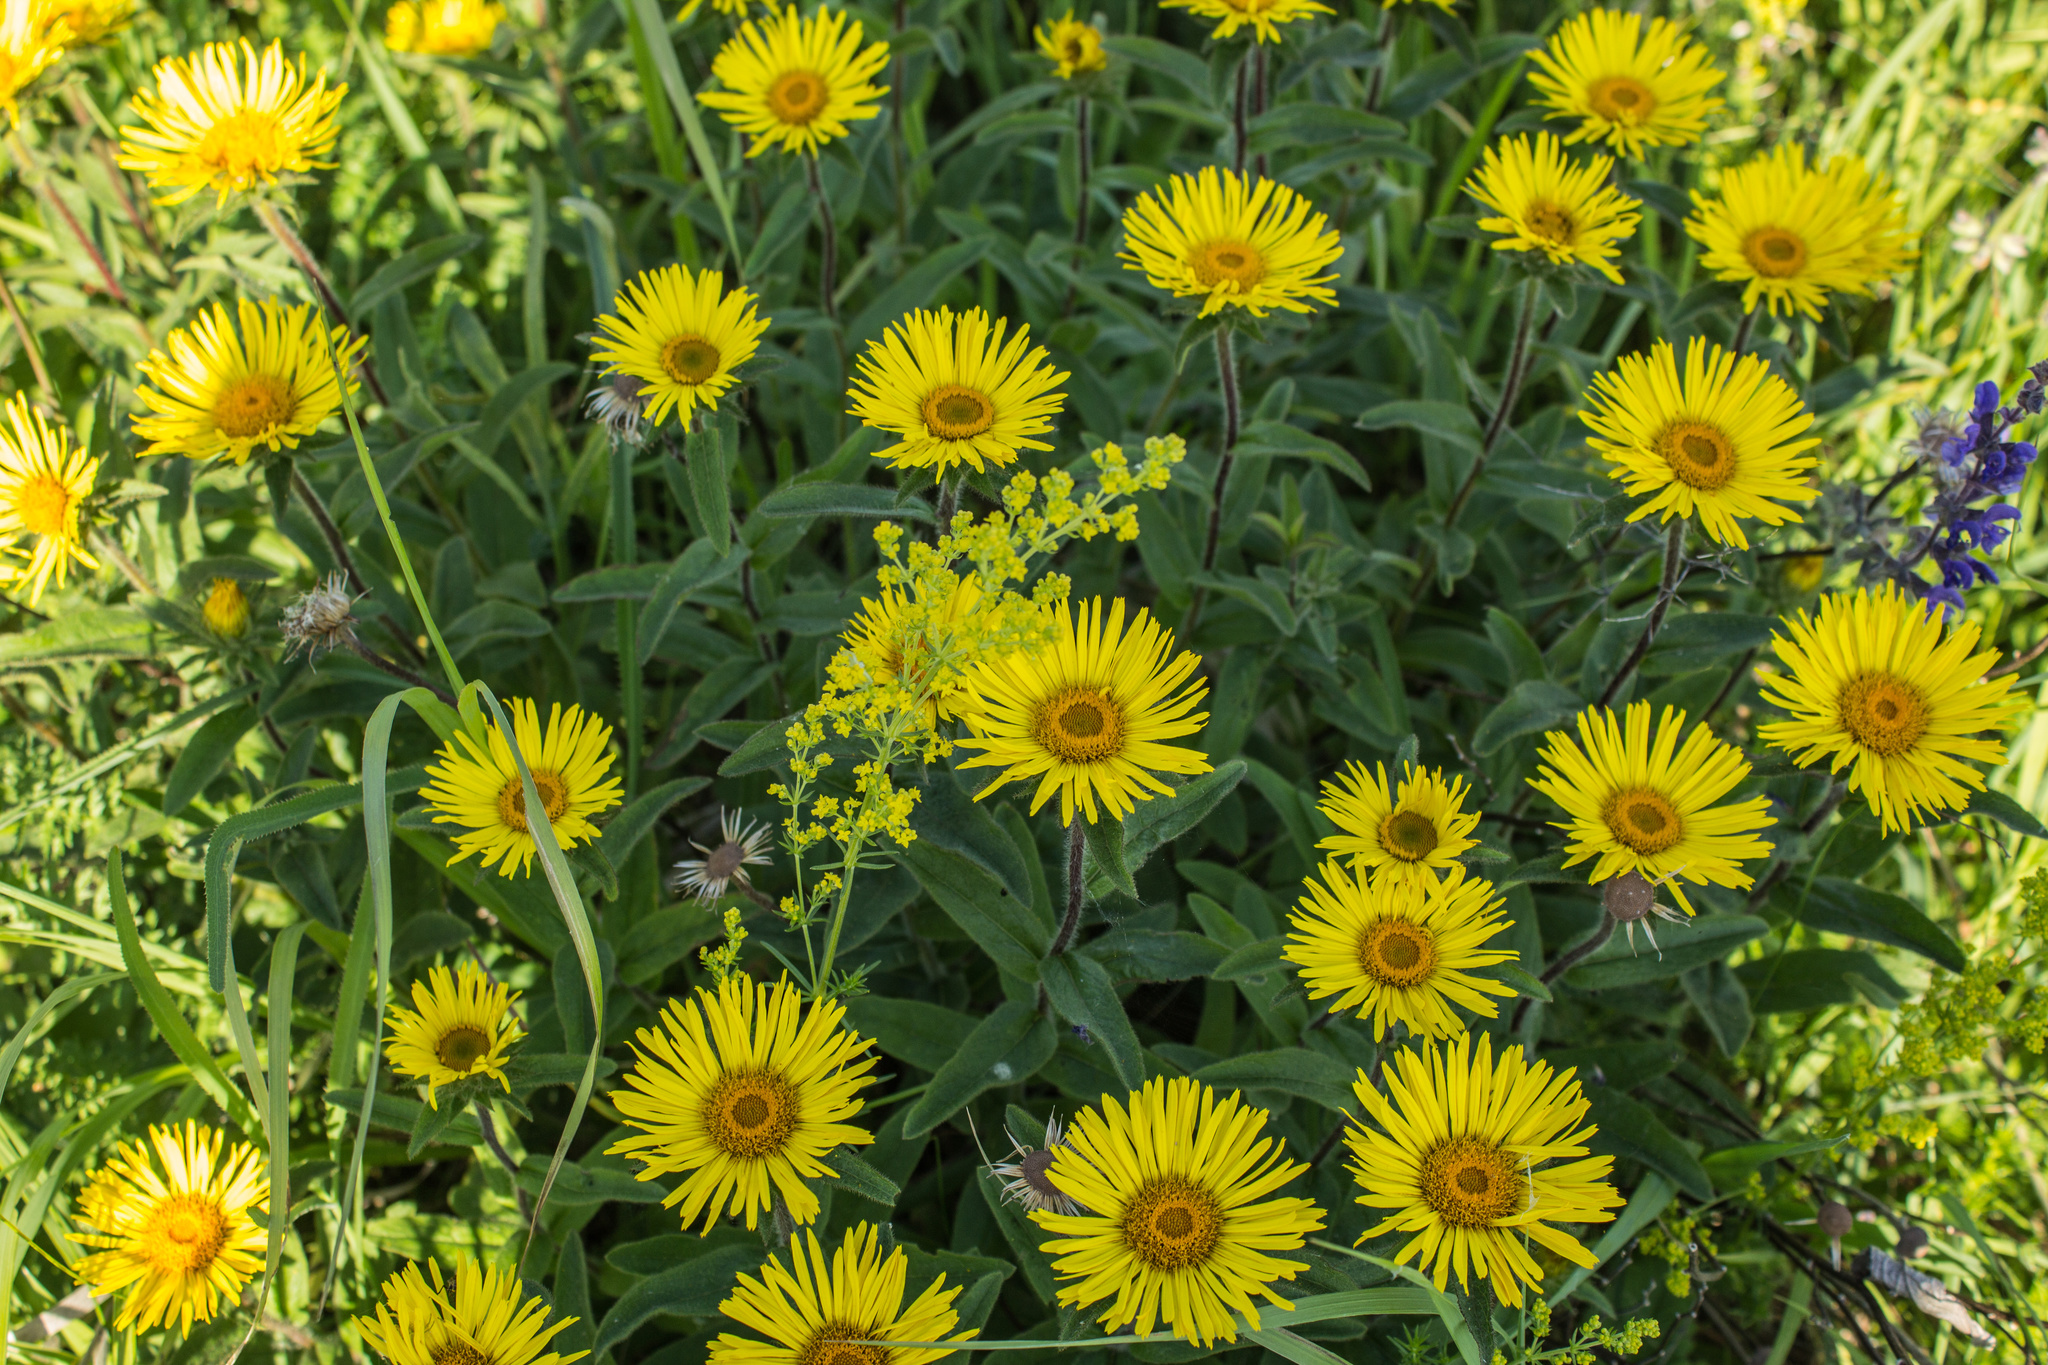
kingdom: Plantae
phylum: Tracheophyta
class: Magnoliopsida
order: Asterales
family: Asteraceae
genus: Pentanema
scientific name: Pentanema hirtum
